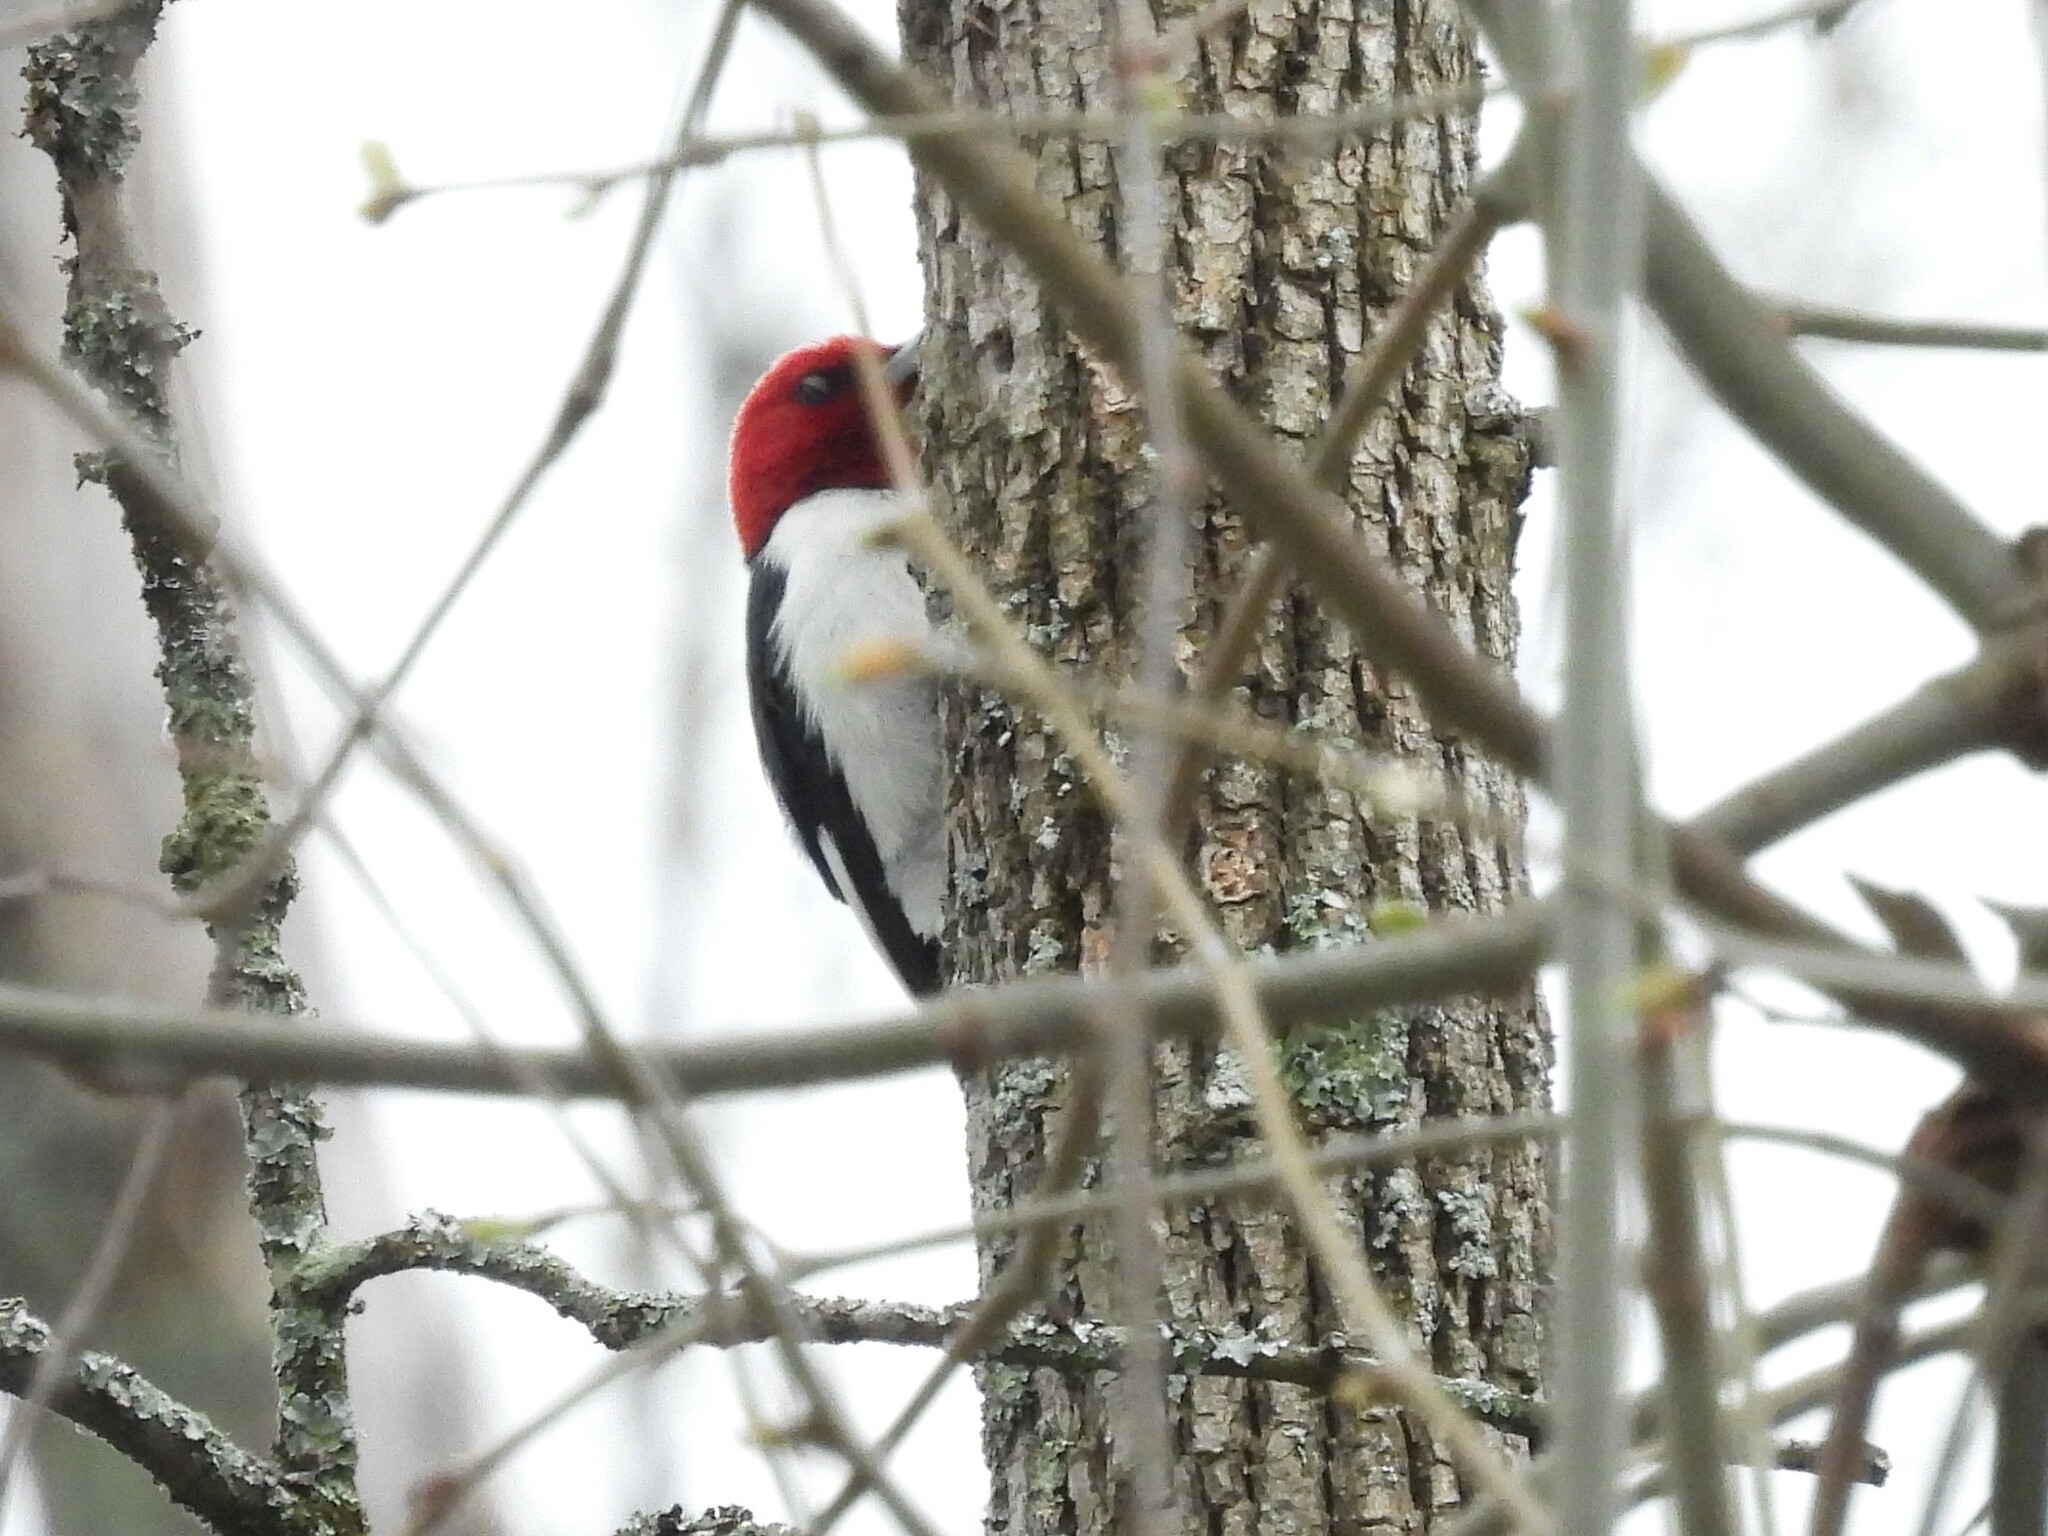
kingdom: Animalia
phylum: Chordata
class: Aves
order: Piciformes
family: Picidae
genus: Melanerpes
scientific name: Melanerpes erythrocephalus
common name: Red-headed woodpecker
